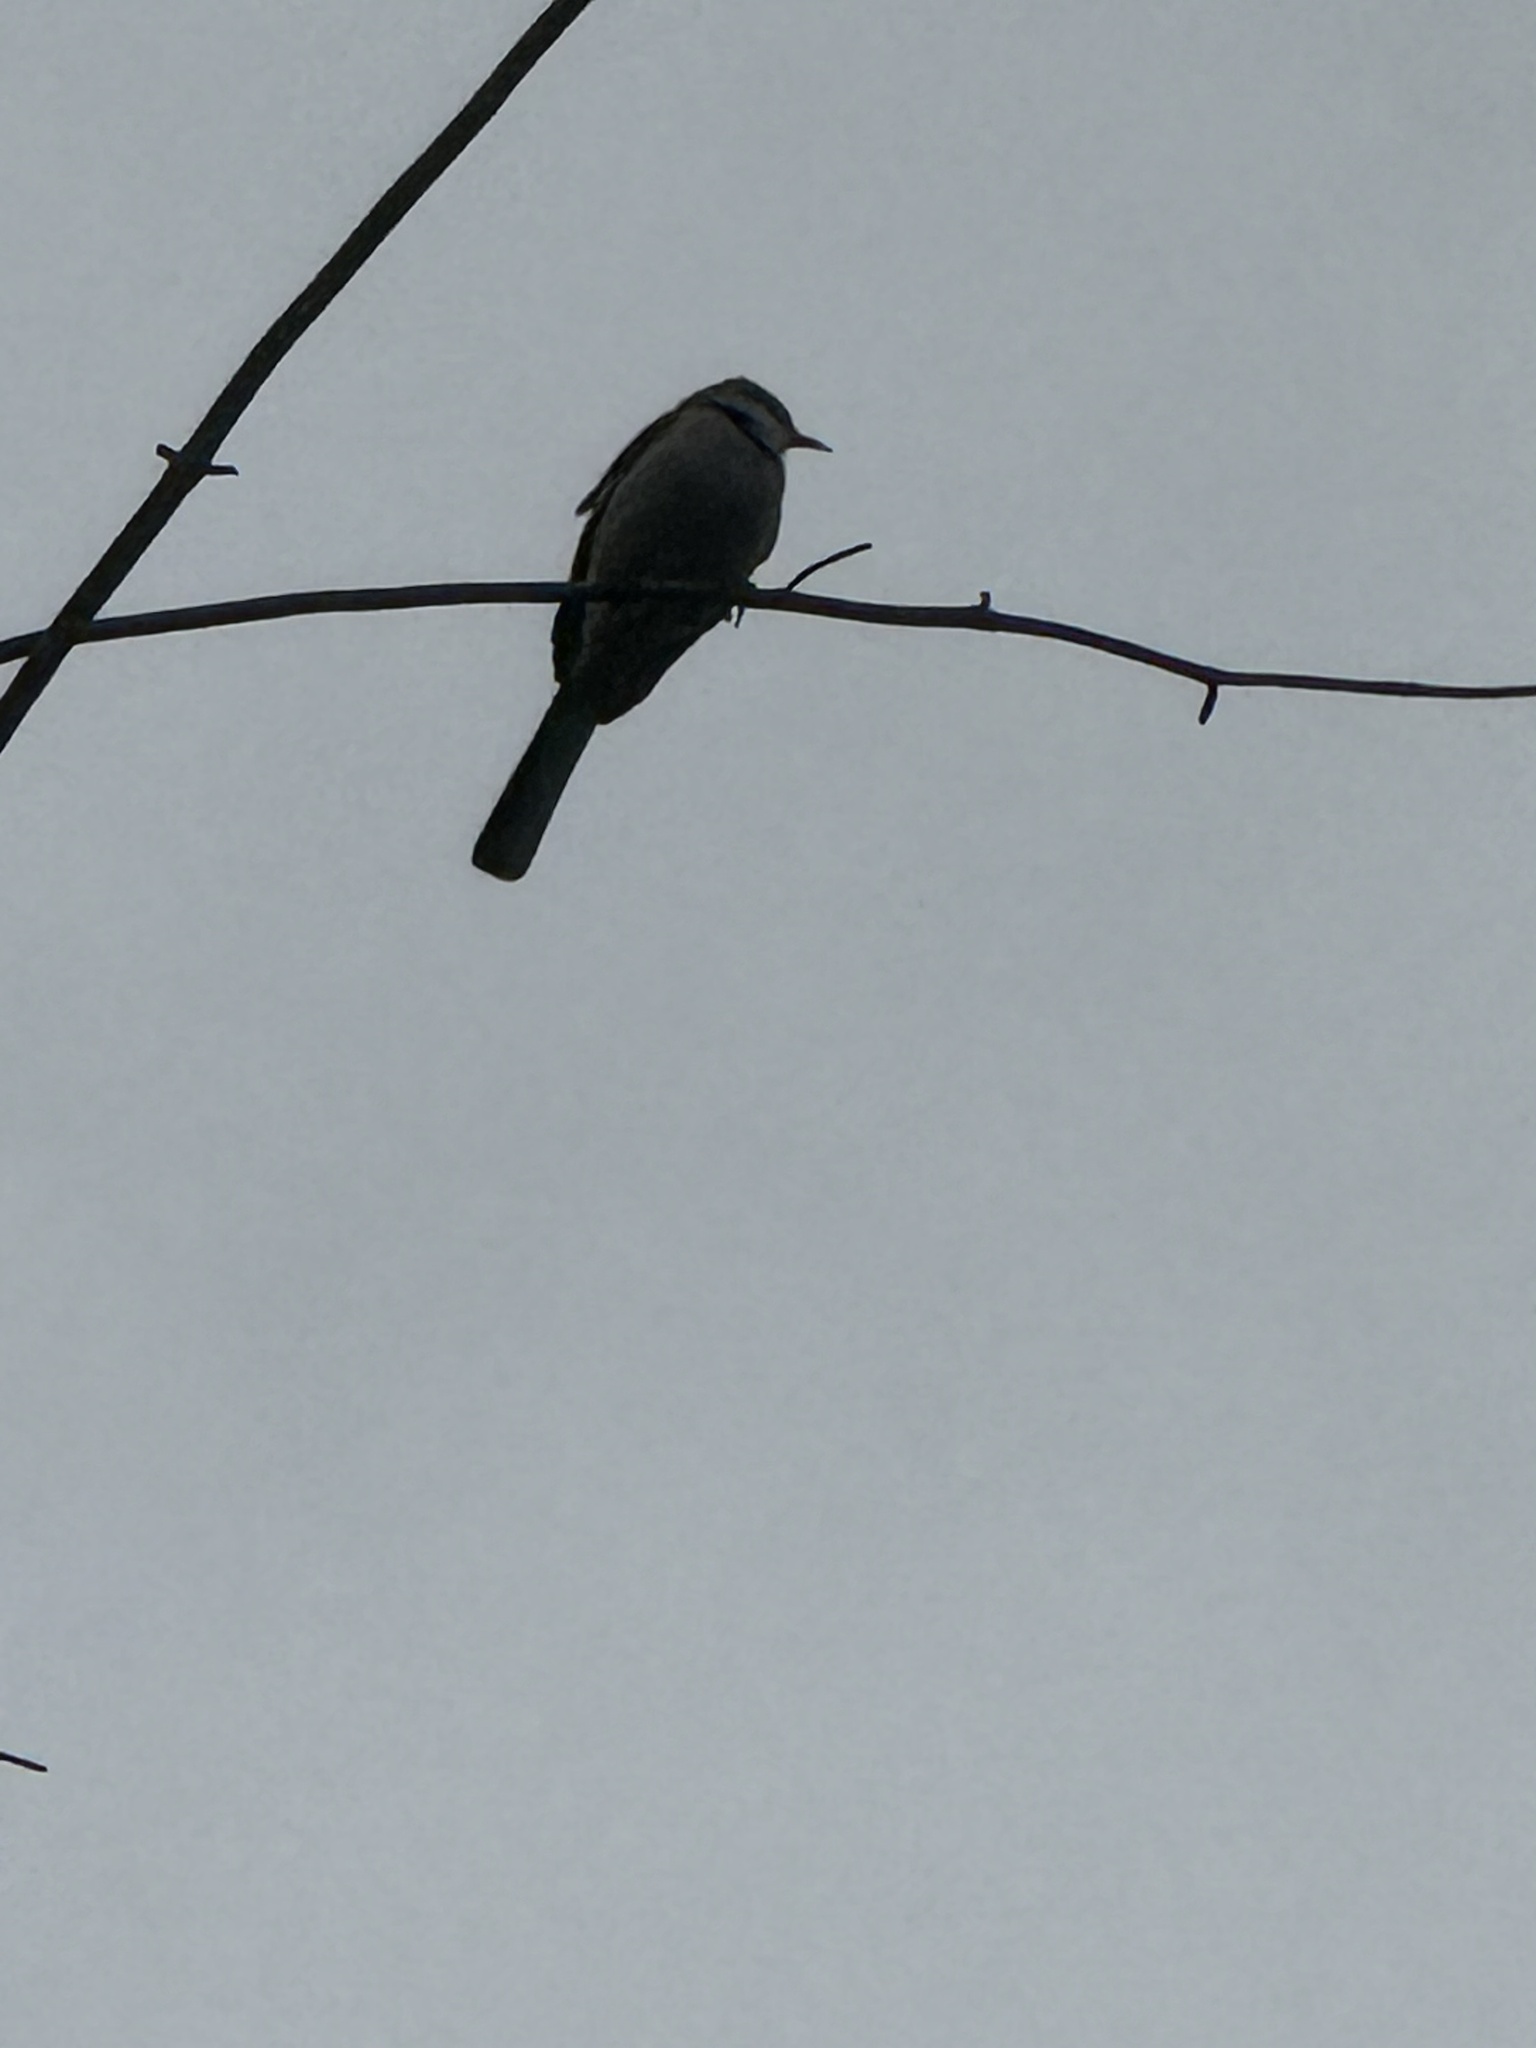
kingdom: Animalia
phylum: Chordata
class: Aves
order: Passeriformes
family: Mimidae
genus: Mimus
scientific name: Mimus polyglottos
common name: Northern mockingbird
